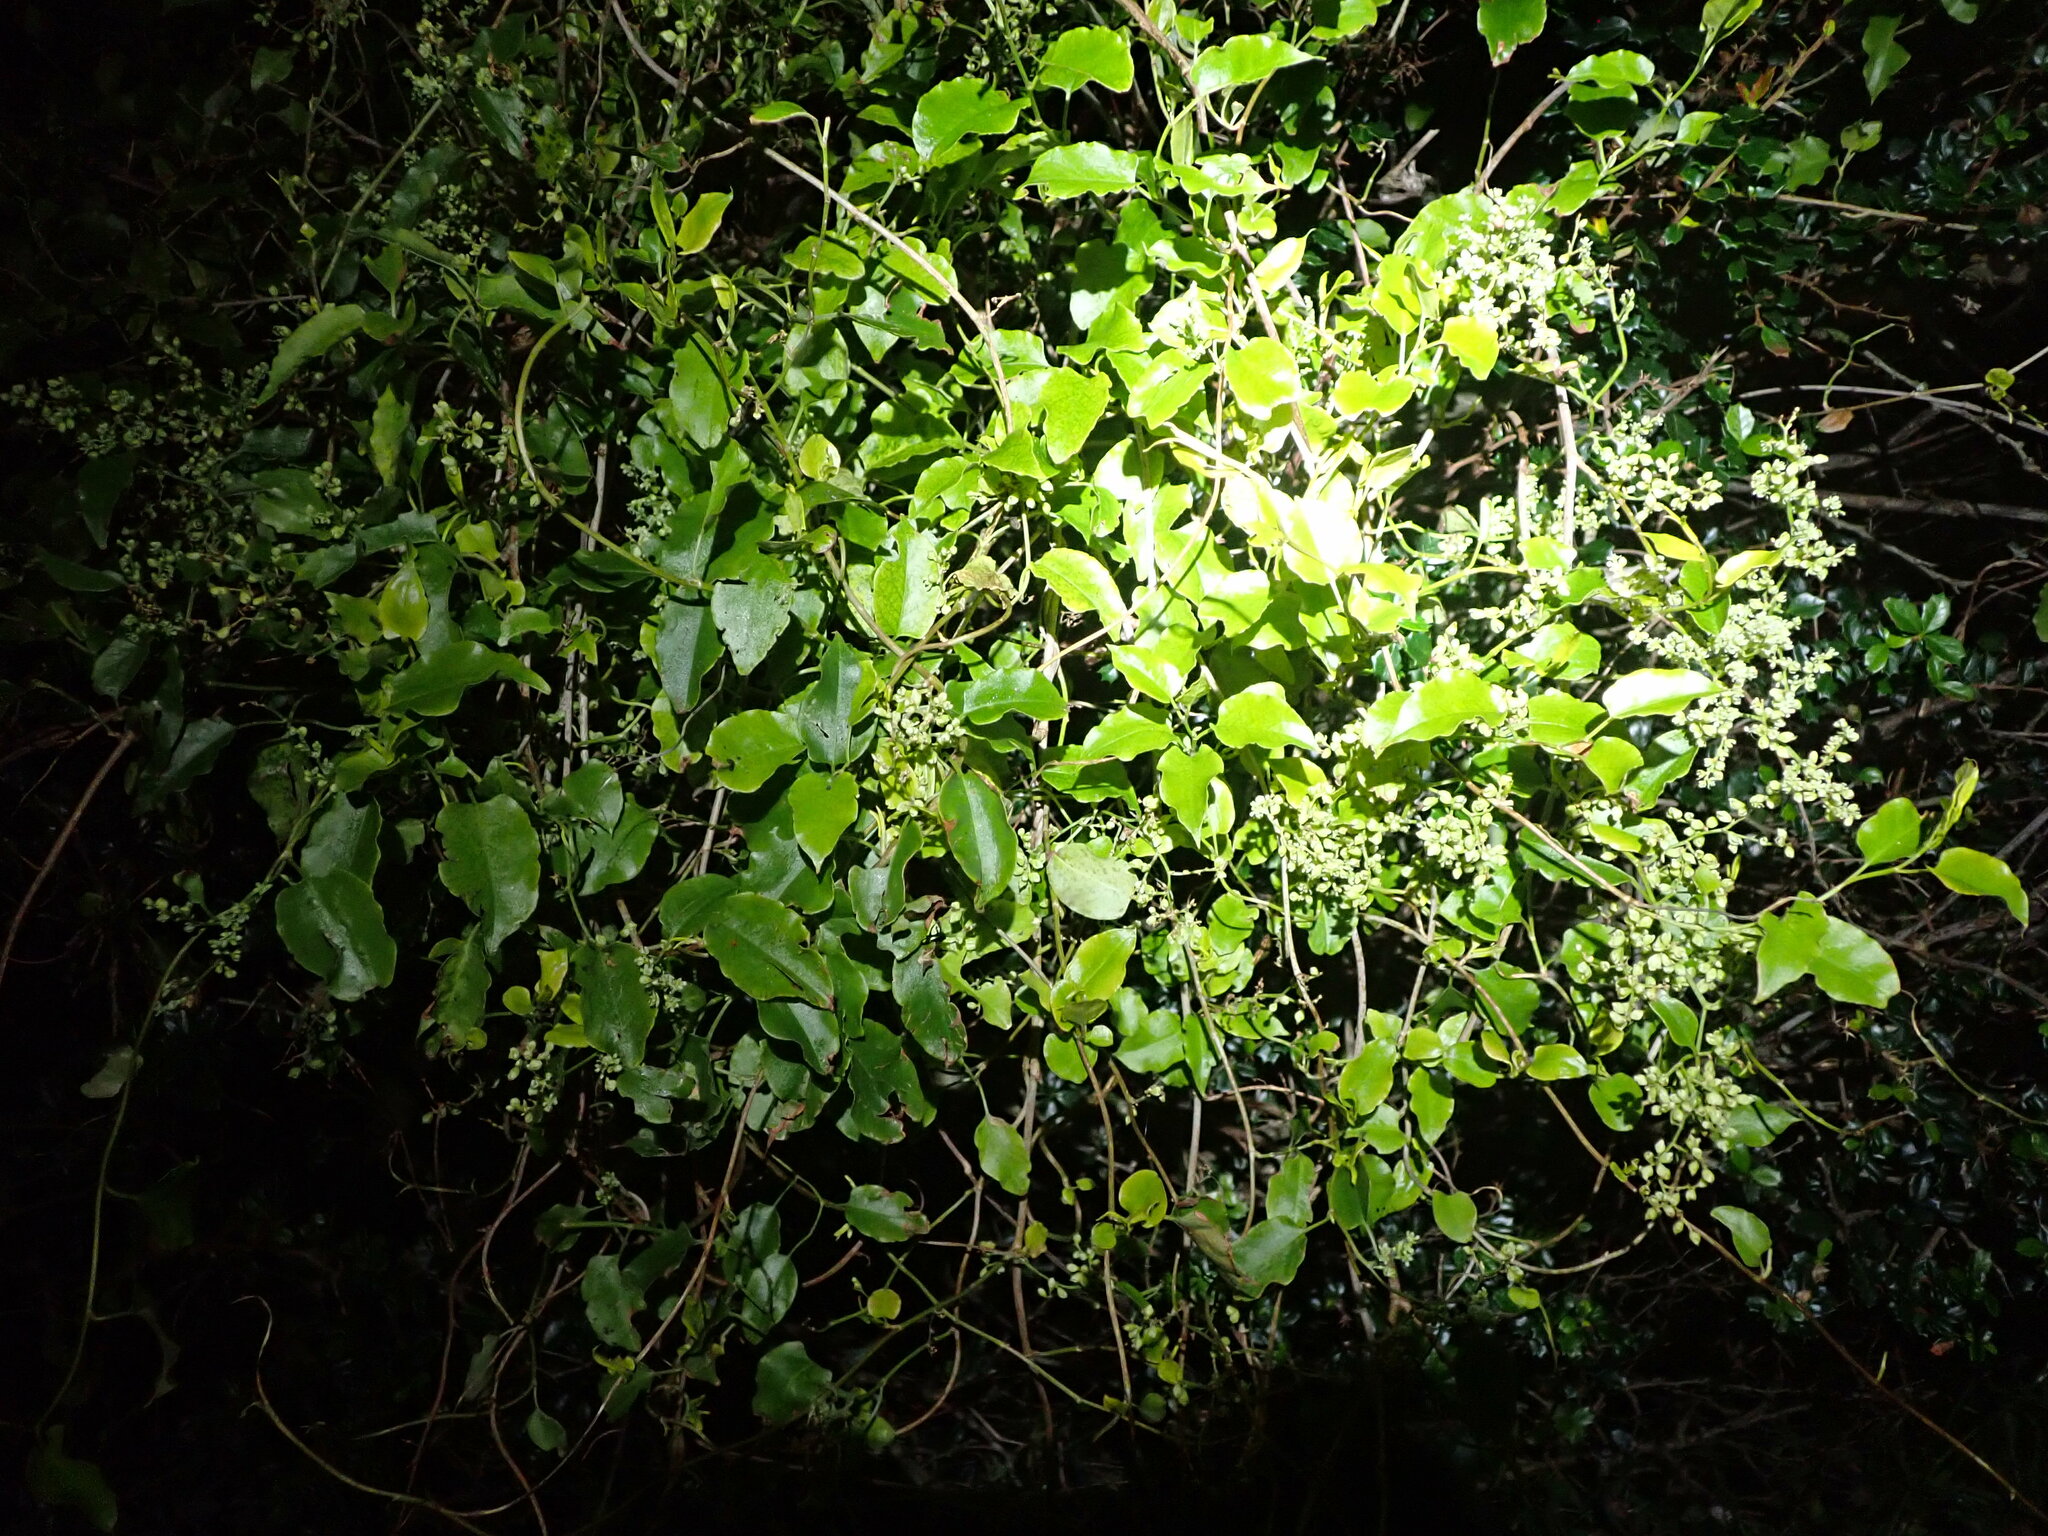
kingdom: Plantae
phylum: Tracheophyta
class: Magnoliopsida
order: Caryophyllales
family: Polygonaceae
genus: Muehlenbeckia
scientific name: Muehlenbeckia australis
